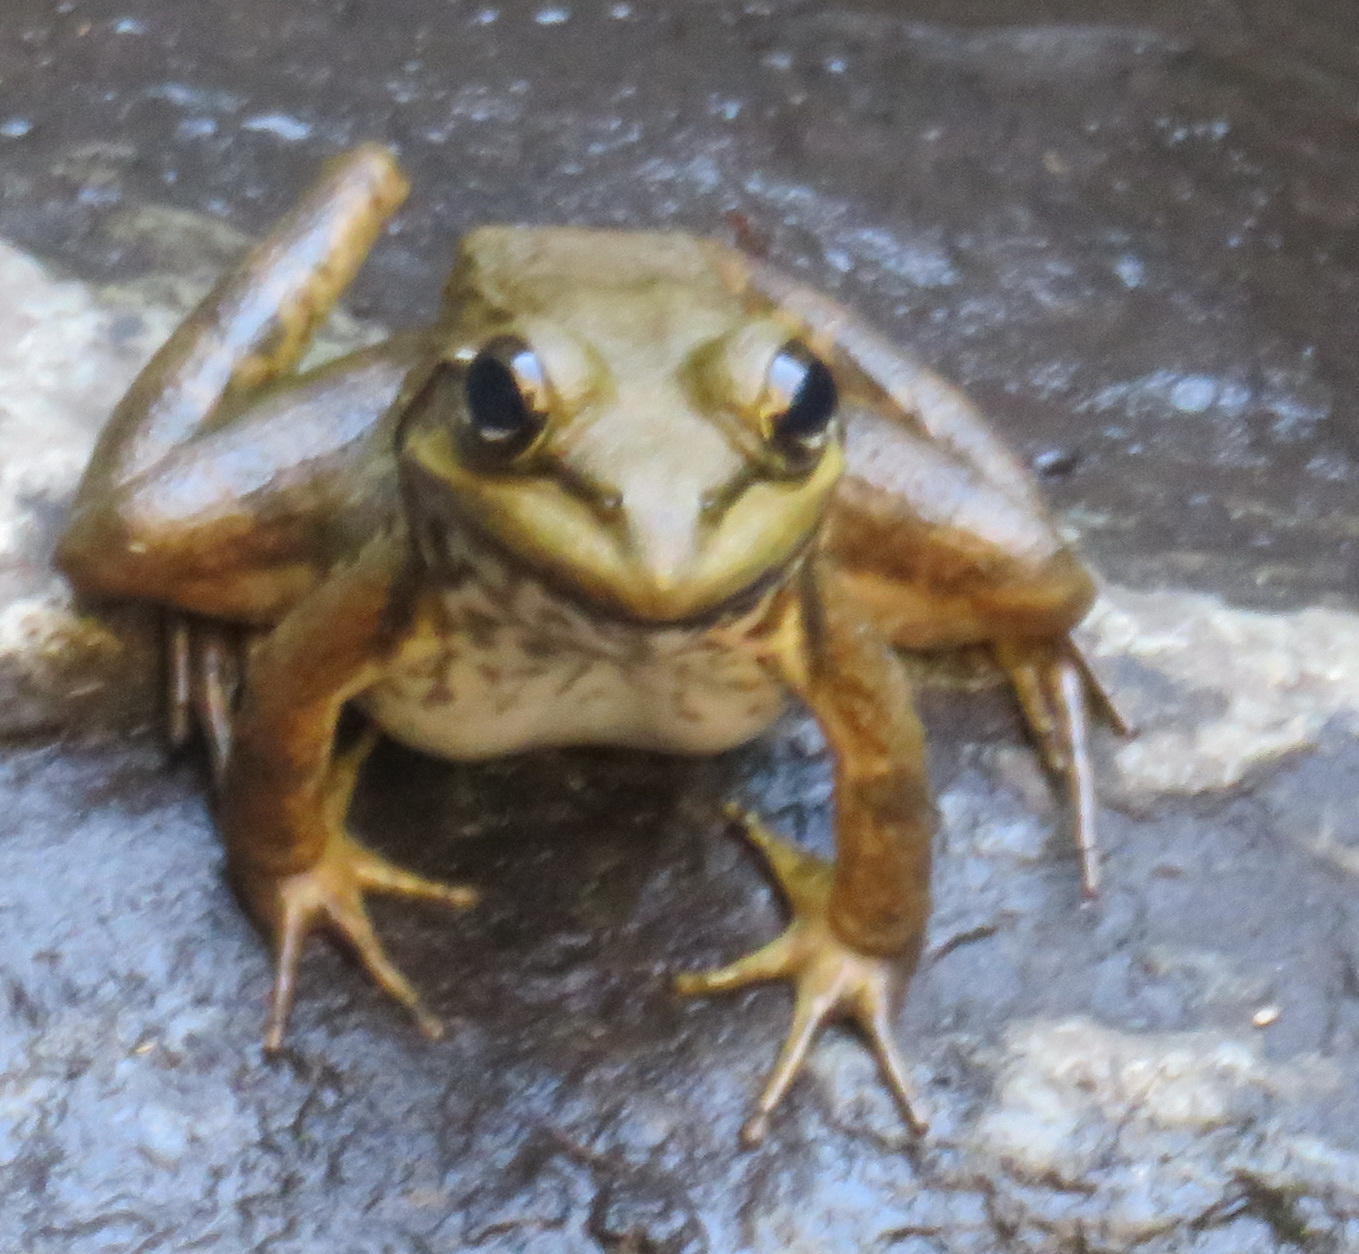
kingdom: Animalia
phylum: Chordata
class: Amphibia
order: Anura
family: Pyxicephalidae
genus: Amietia
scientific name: Amietia fuscigula
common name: Cape rana
